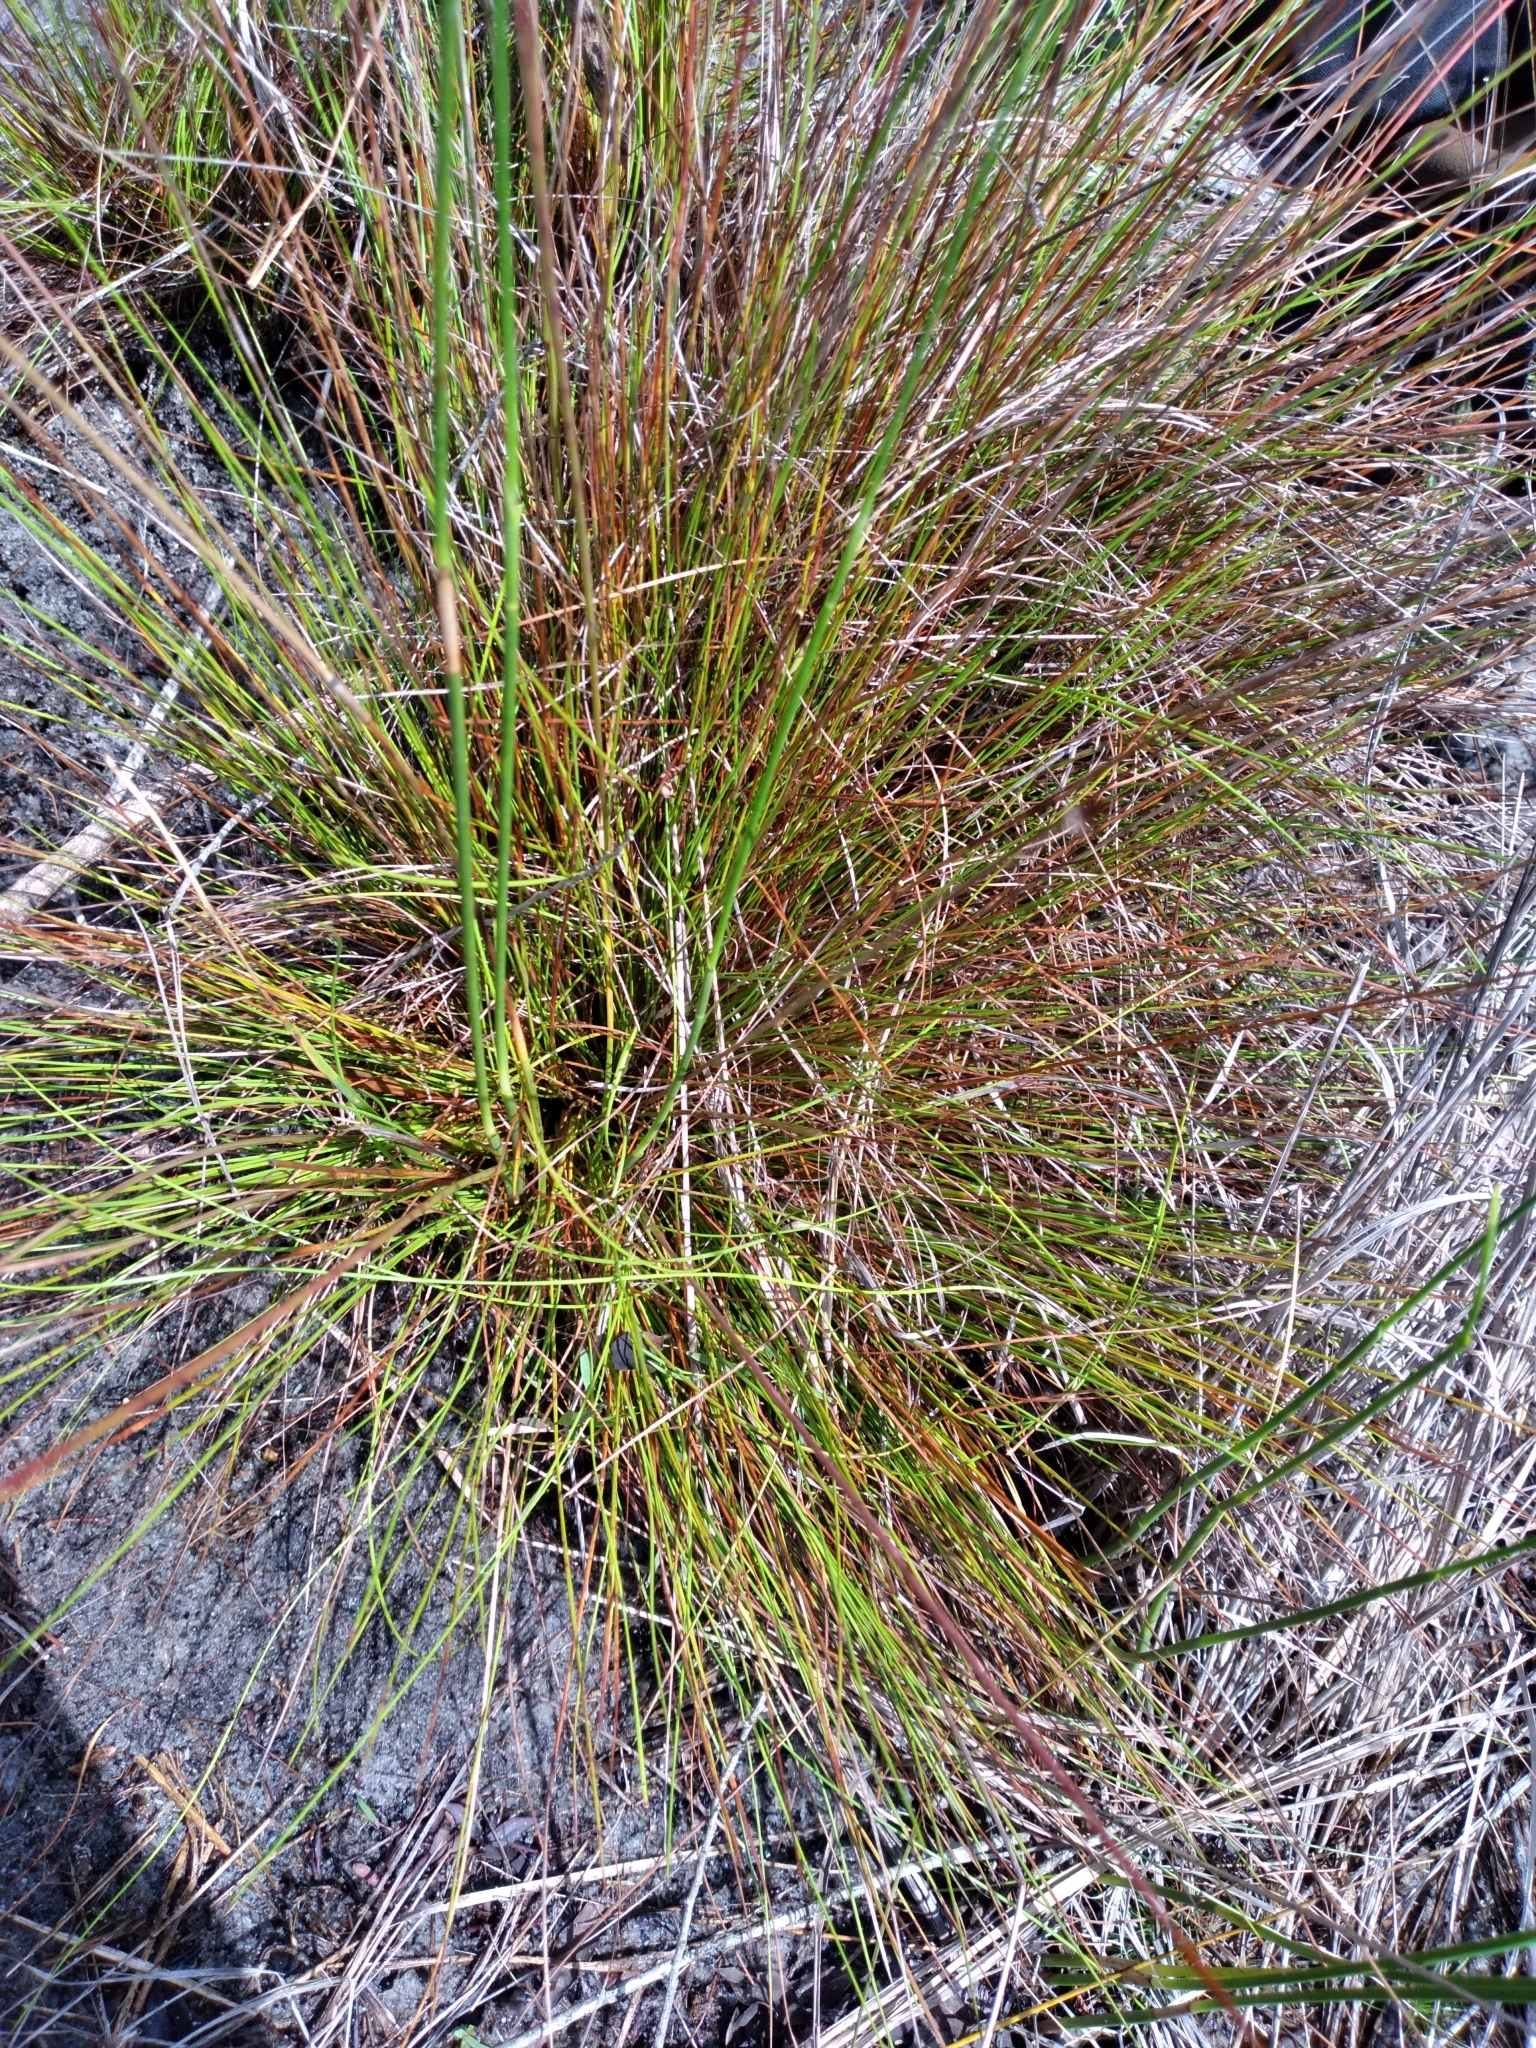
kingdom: Plantae
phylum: Tracheophyta
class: Liliopsida
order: Poales
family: Xyridaceae
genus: Xyris
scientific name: Xyris stenotera
